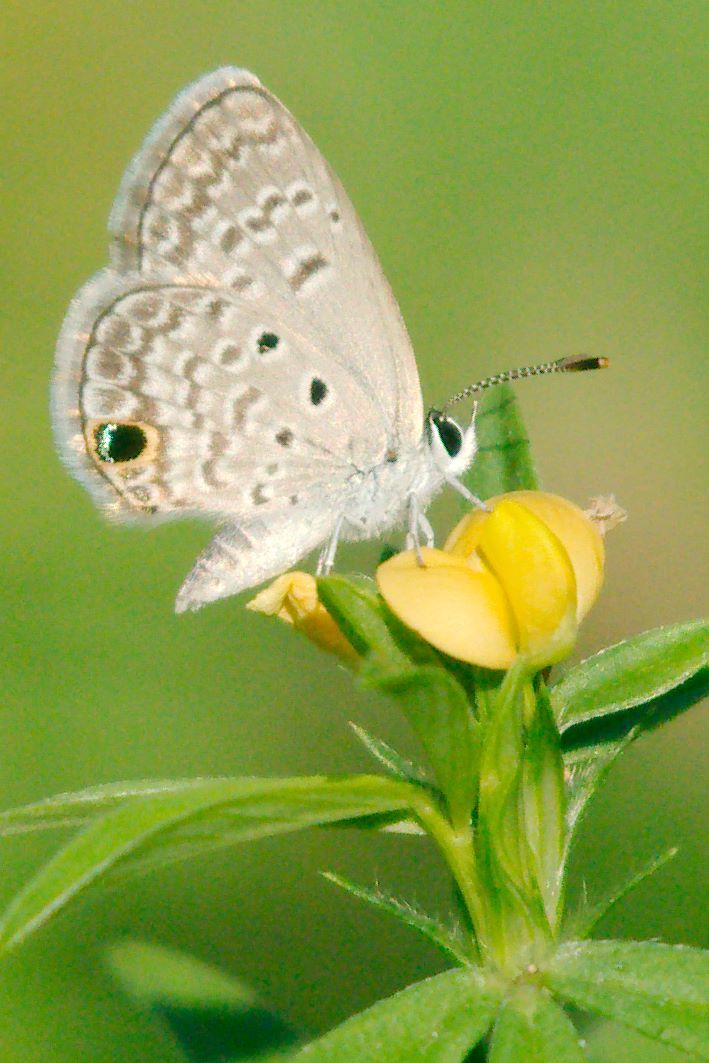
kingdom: Animalia
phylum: Arthropoda
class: Insecta
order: Lepidoptera
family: Lycaenidae
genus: Hemiargus
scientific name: Hemiargus ceraunus
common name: Ceraunus blue
